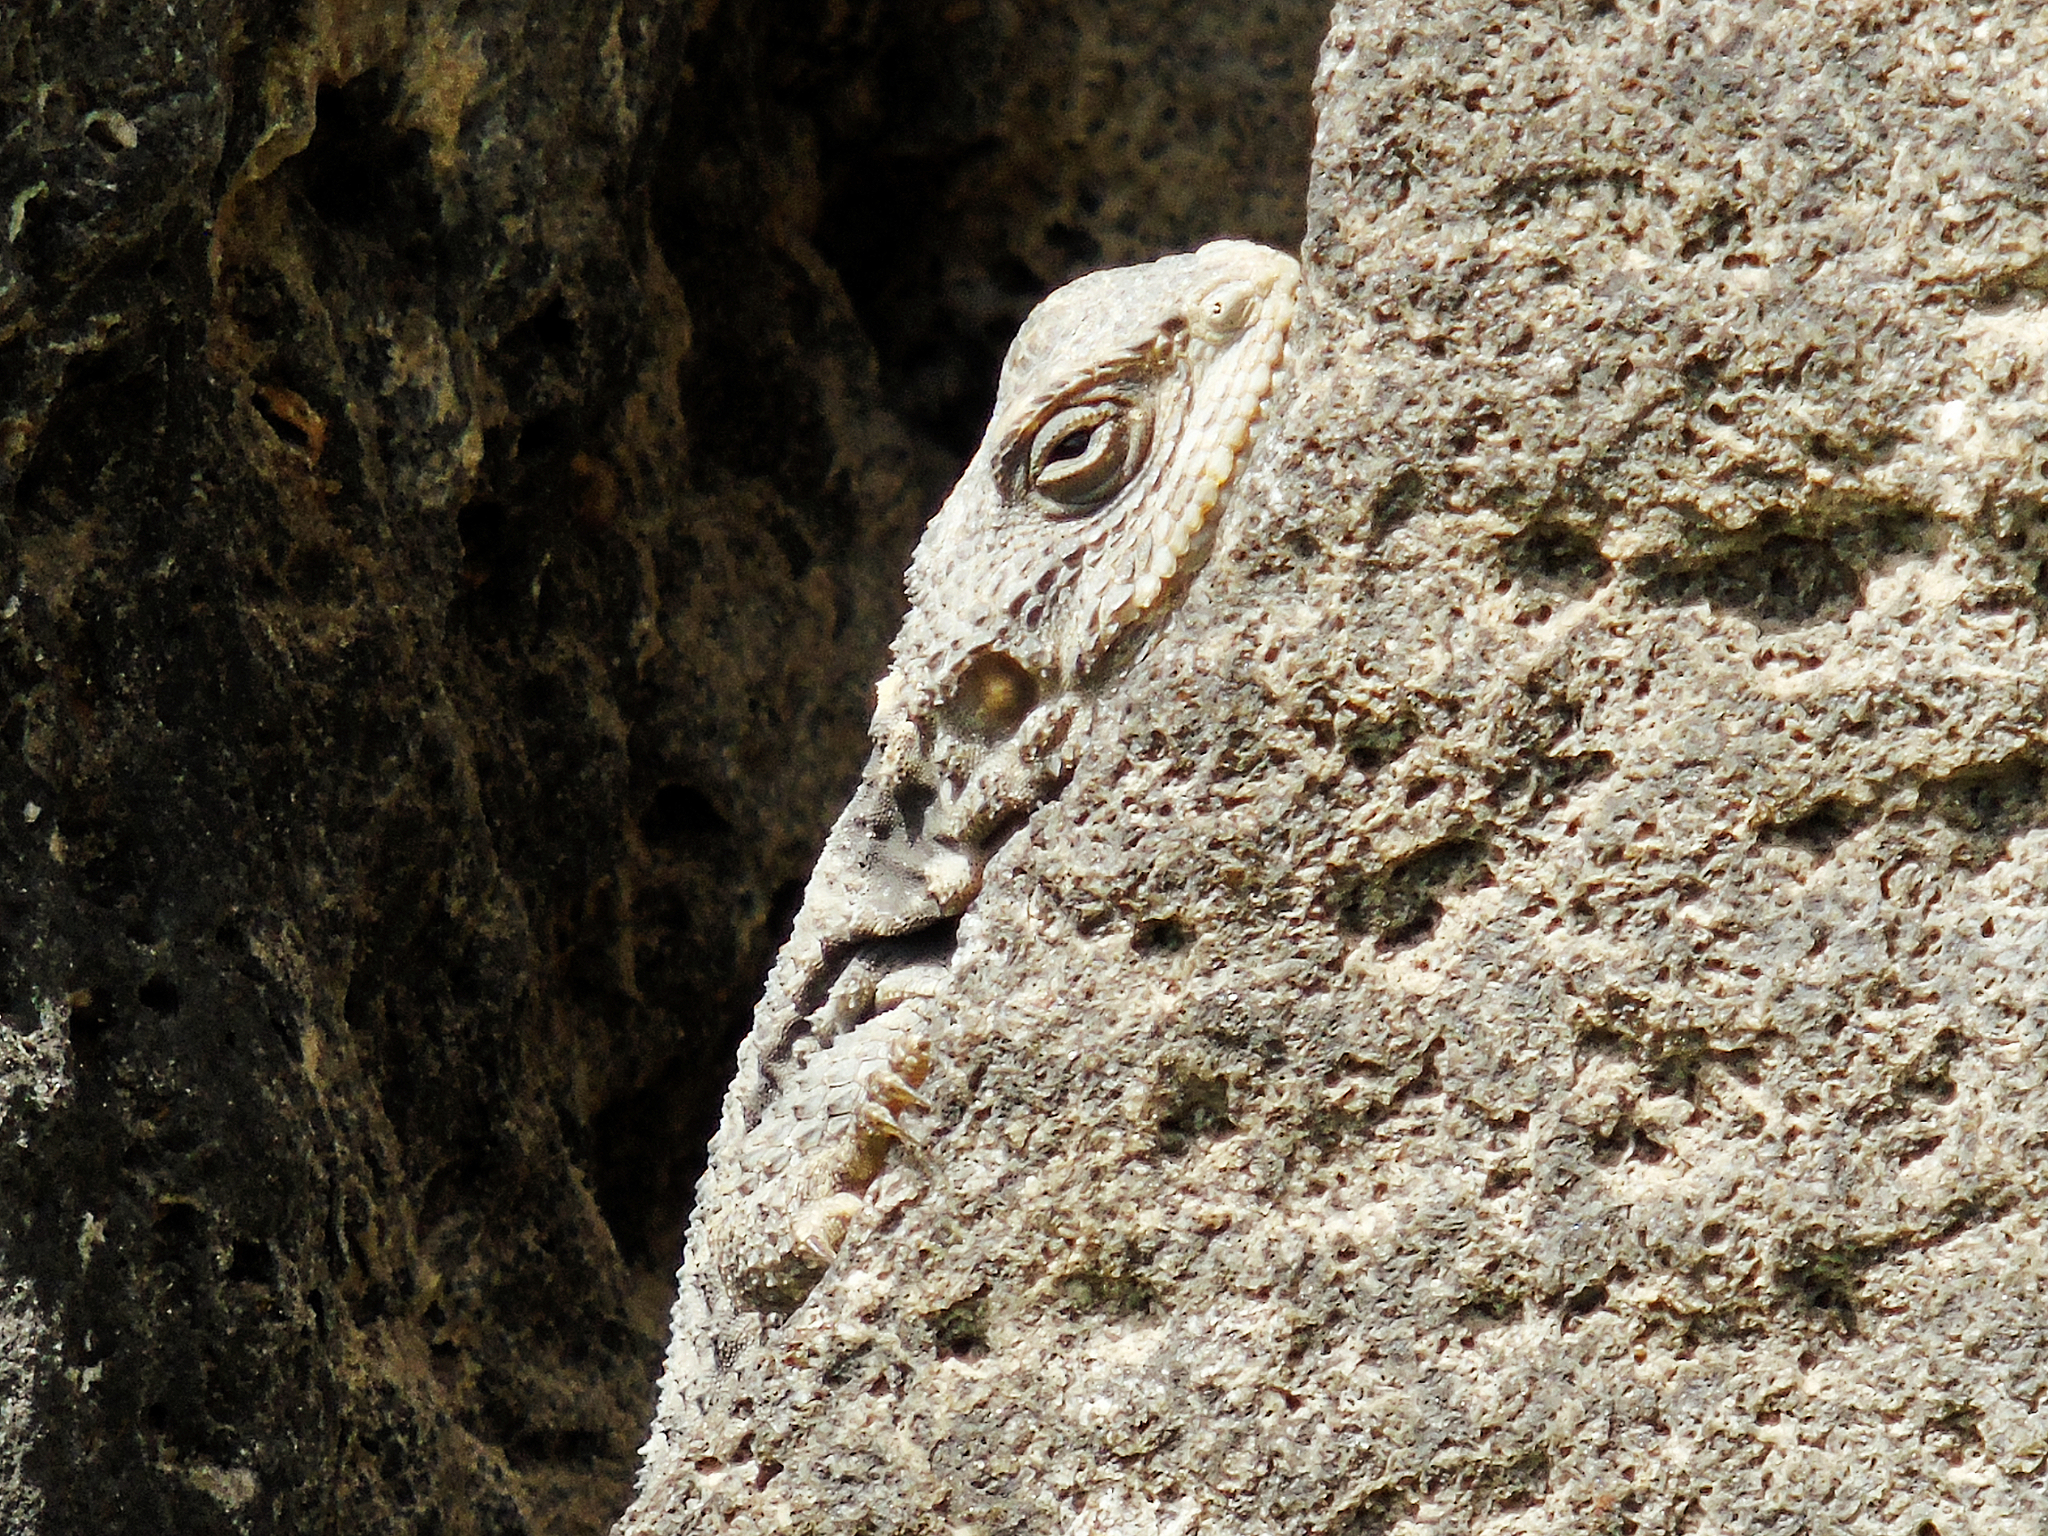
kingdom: Animalia
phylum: Chordata
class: Squamata
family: Agamidae
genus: Stellagama
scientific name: Stellagama stellio
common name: Starred agama
